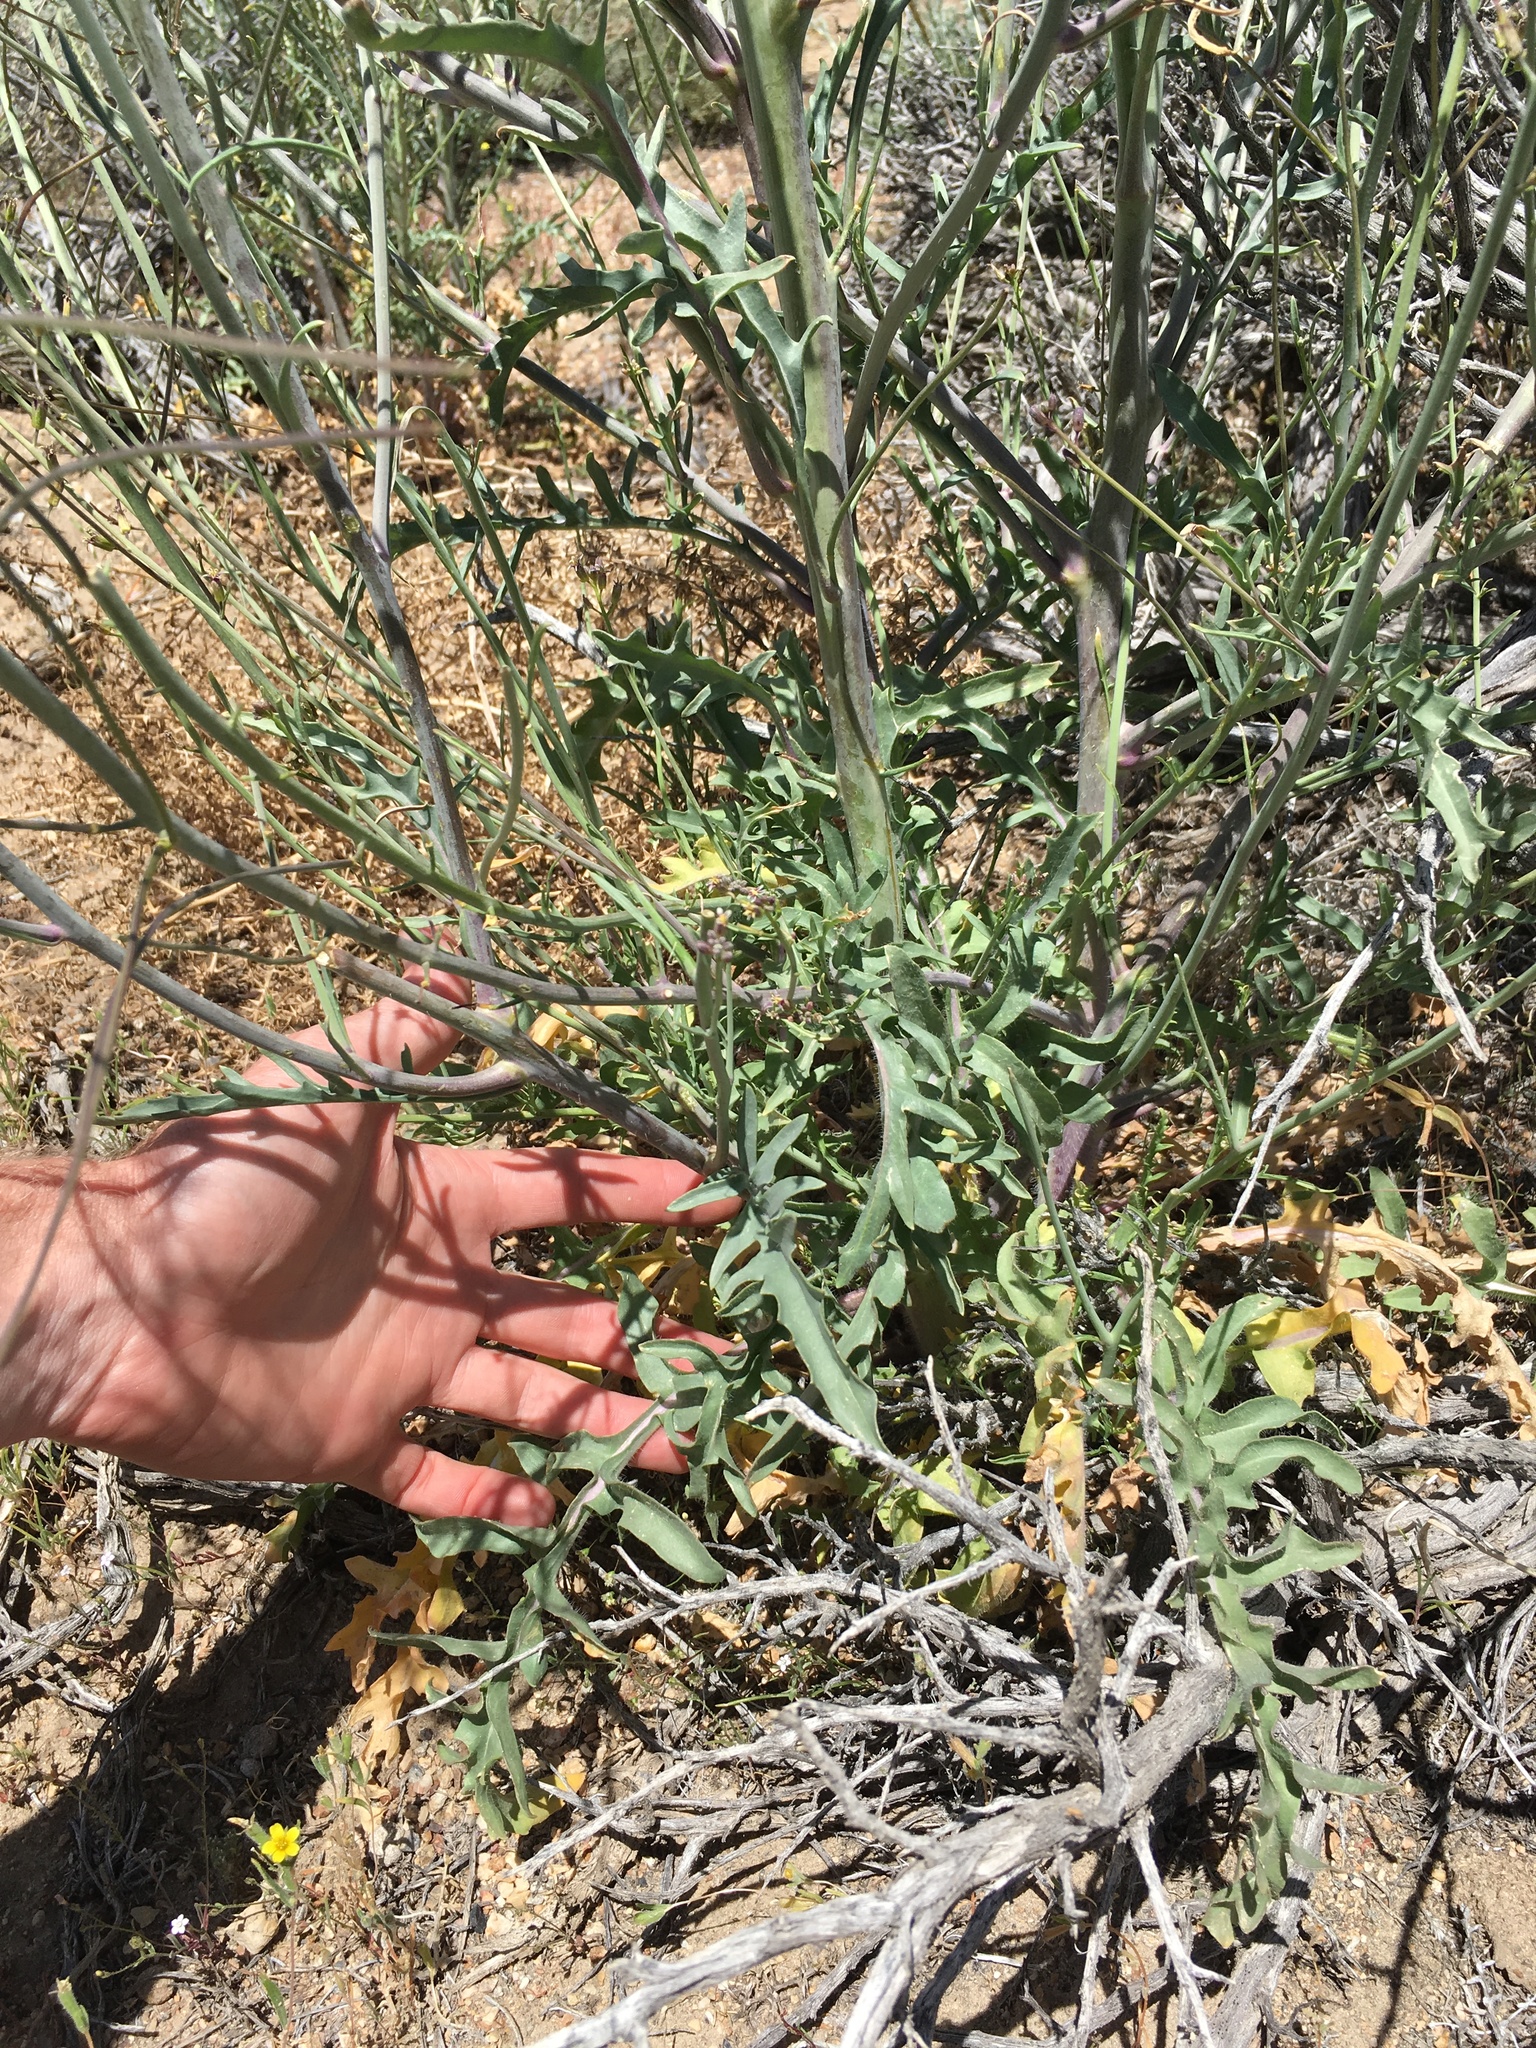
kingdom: Plantae
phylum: Tracheophyta
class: Magnoliopsida
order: Brassicales
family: Brassicaceae
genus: Streptanthus
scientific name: Streptanthus pilosus
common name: Chocolate drops
